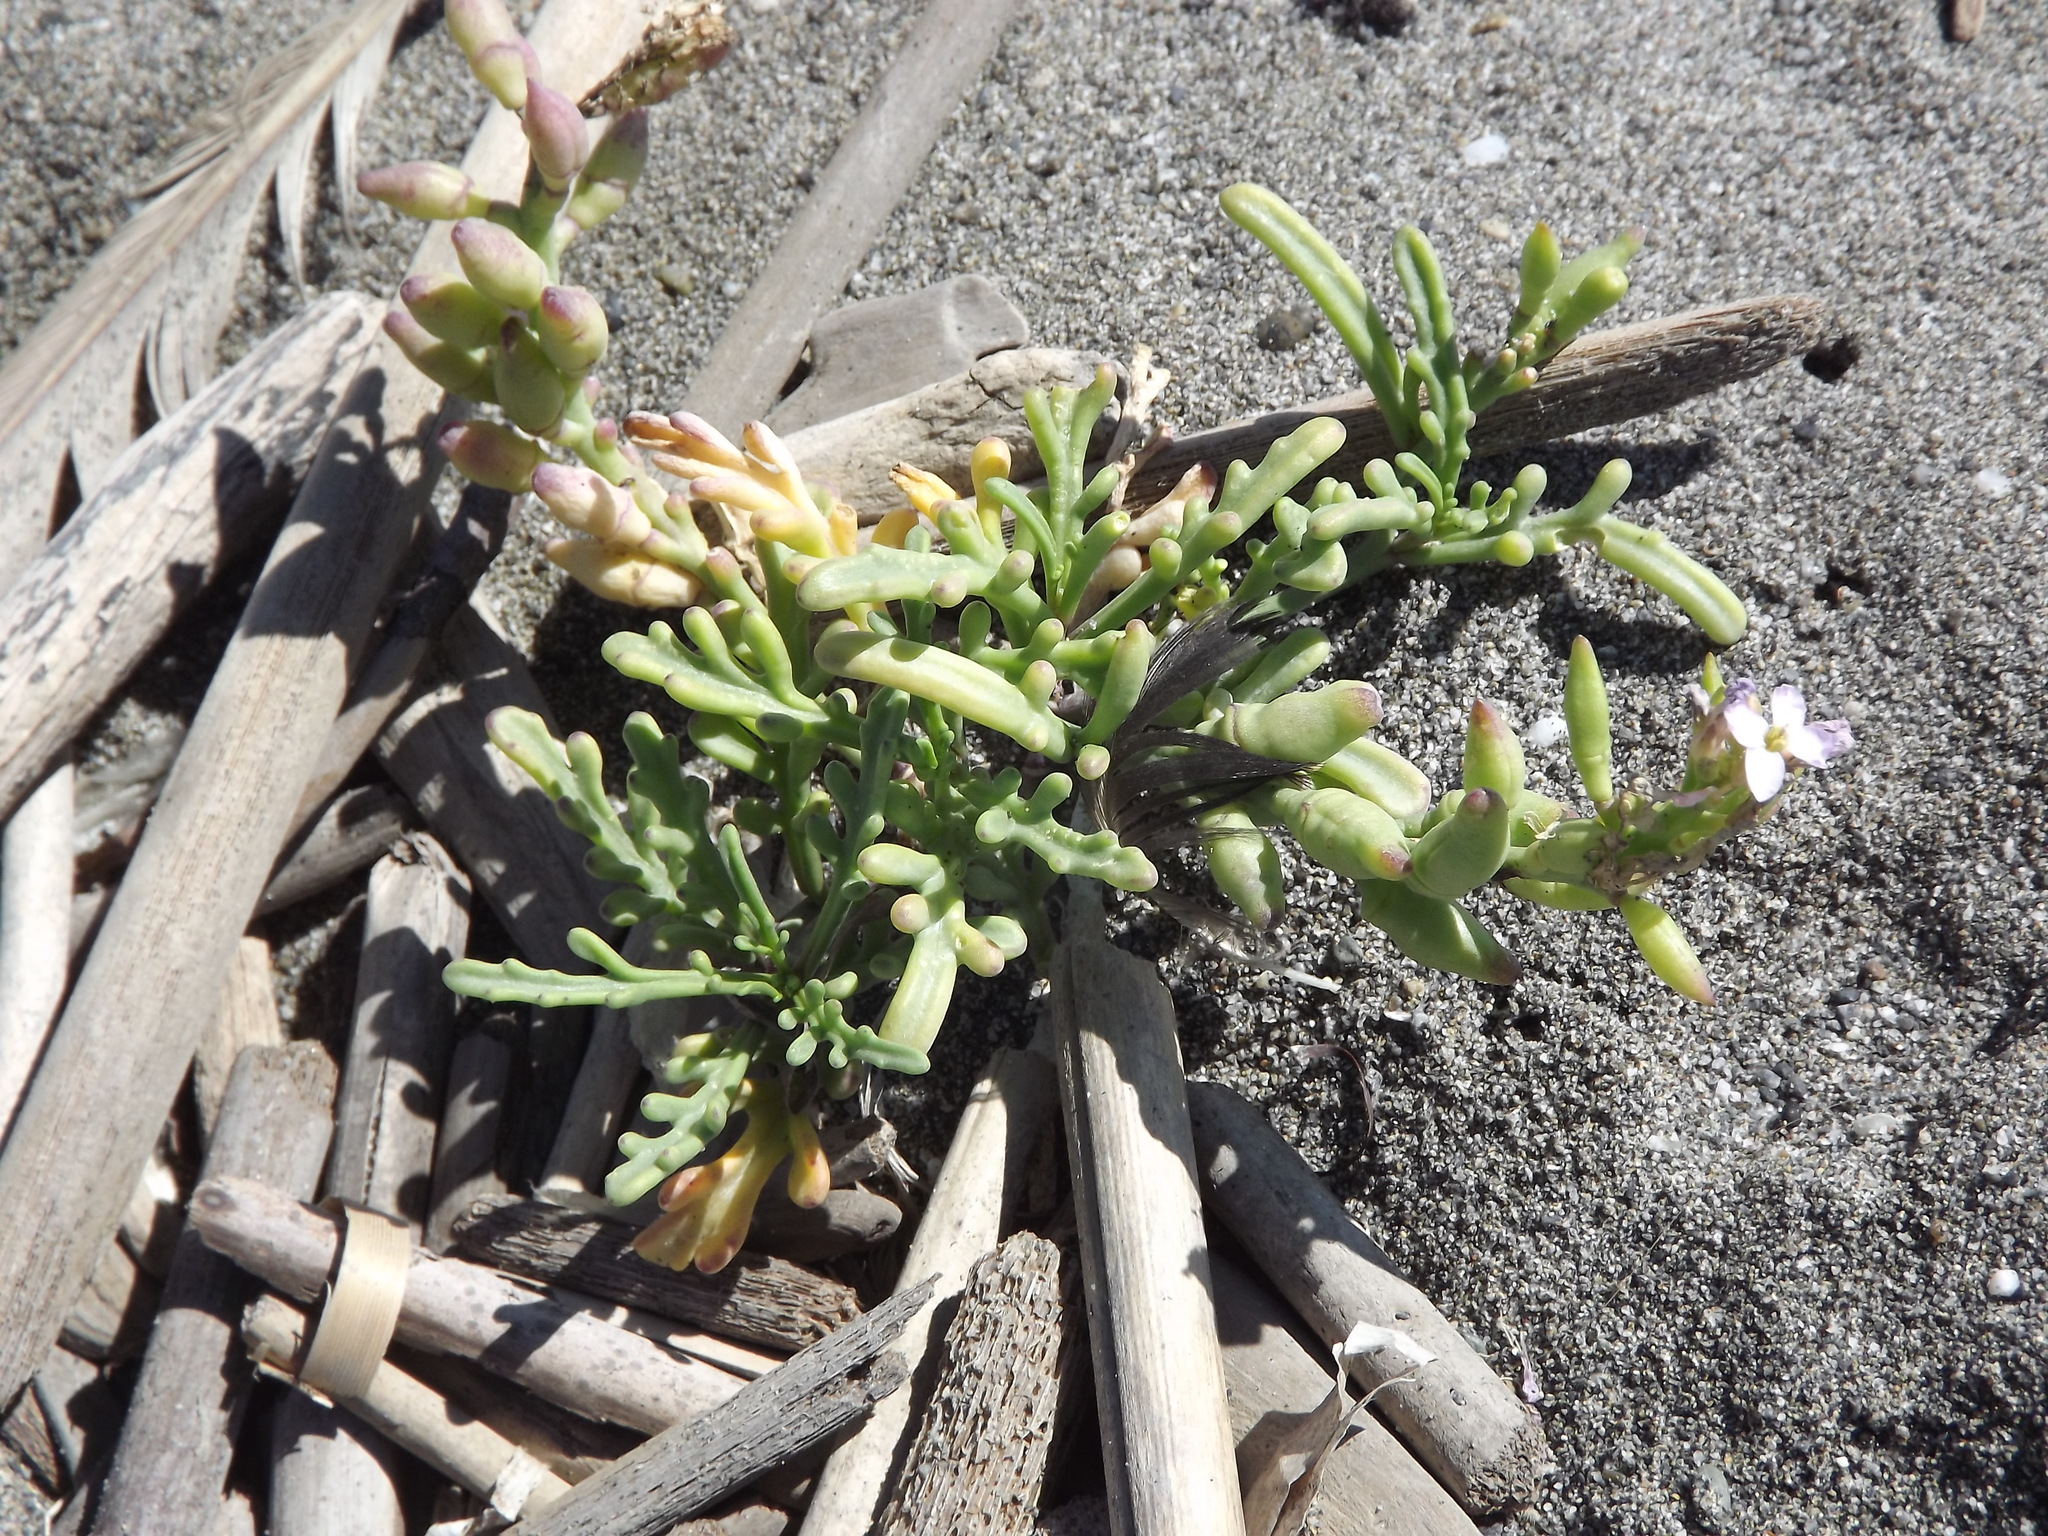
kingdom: Plantae
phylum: Tracheophyta
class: Magnoliopsida
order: Brassicales
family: Brassicaceae
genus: Cakile
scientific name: Cakile maritima
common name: Sea rocket
